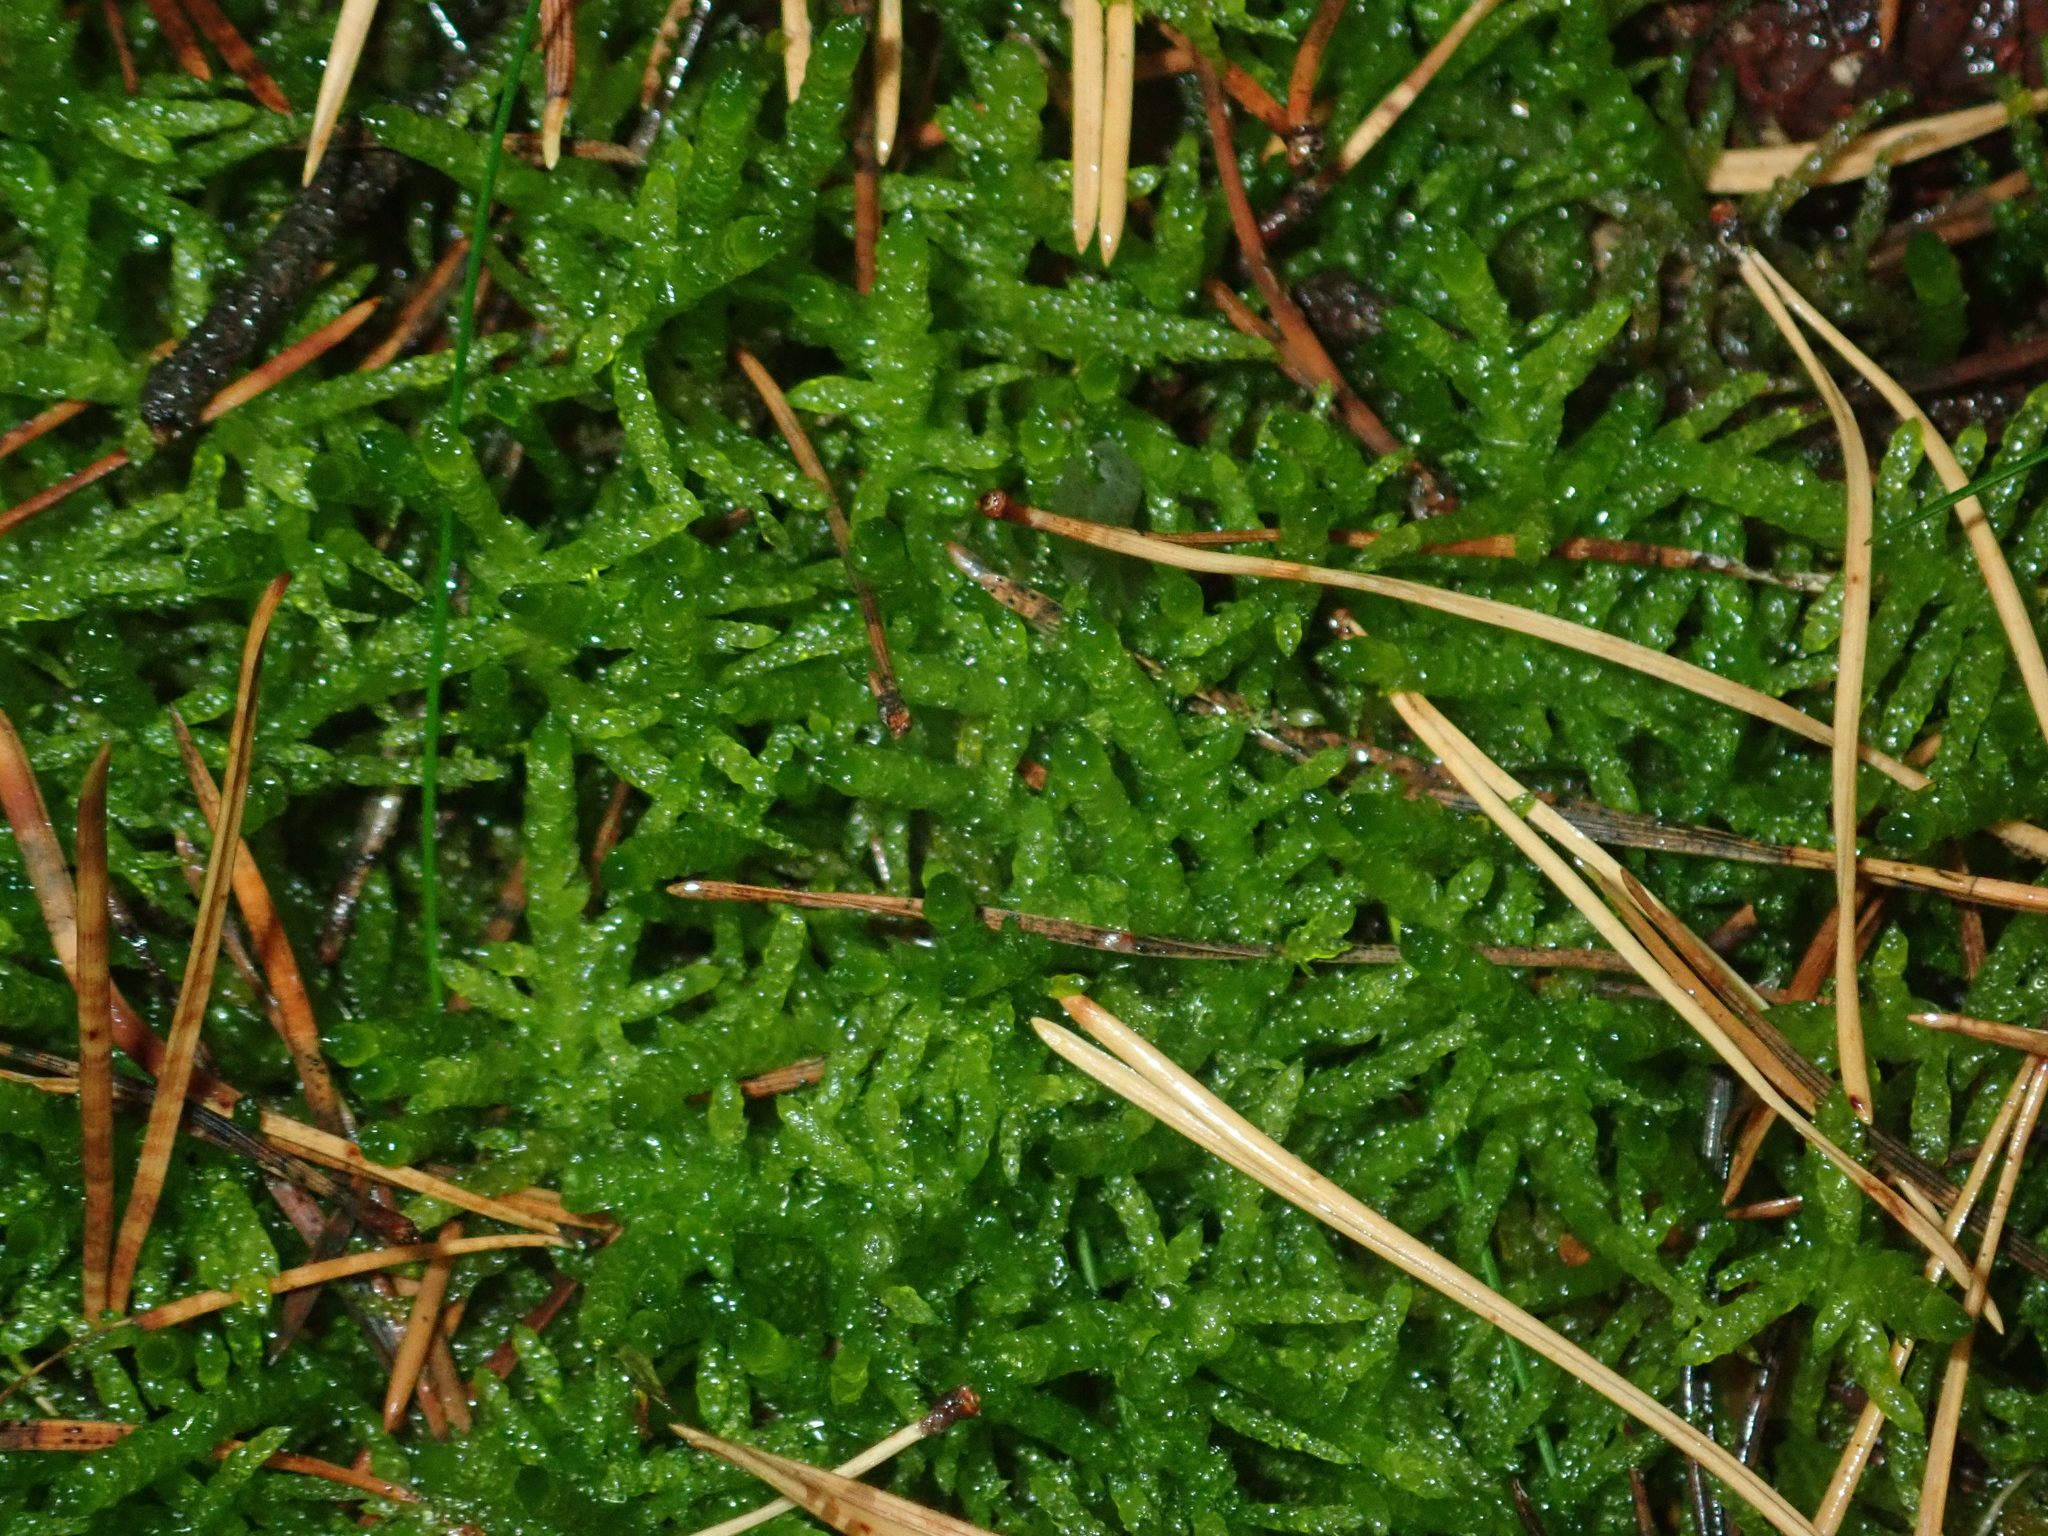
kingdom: Plantae
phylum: Bryophyta
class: Bryopsida
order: Hypnales
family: Brachytheciaceae
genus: Pseudoscleropodium
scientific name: Pseudoscleropodium purum
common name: Neat feather-moss
